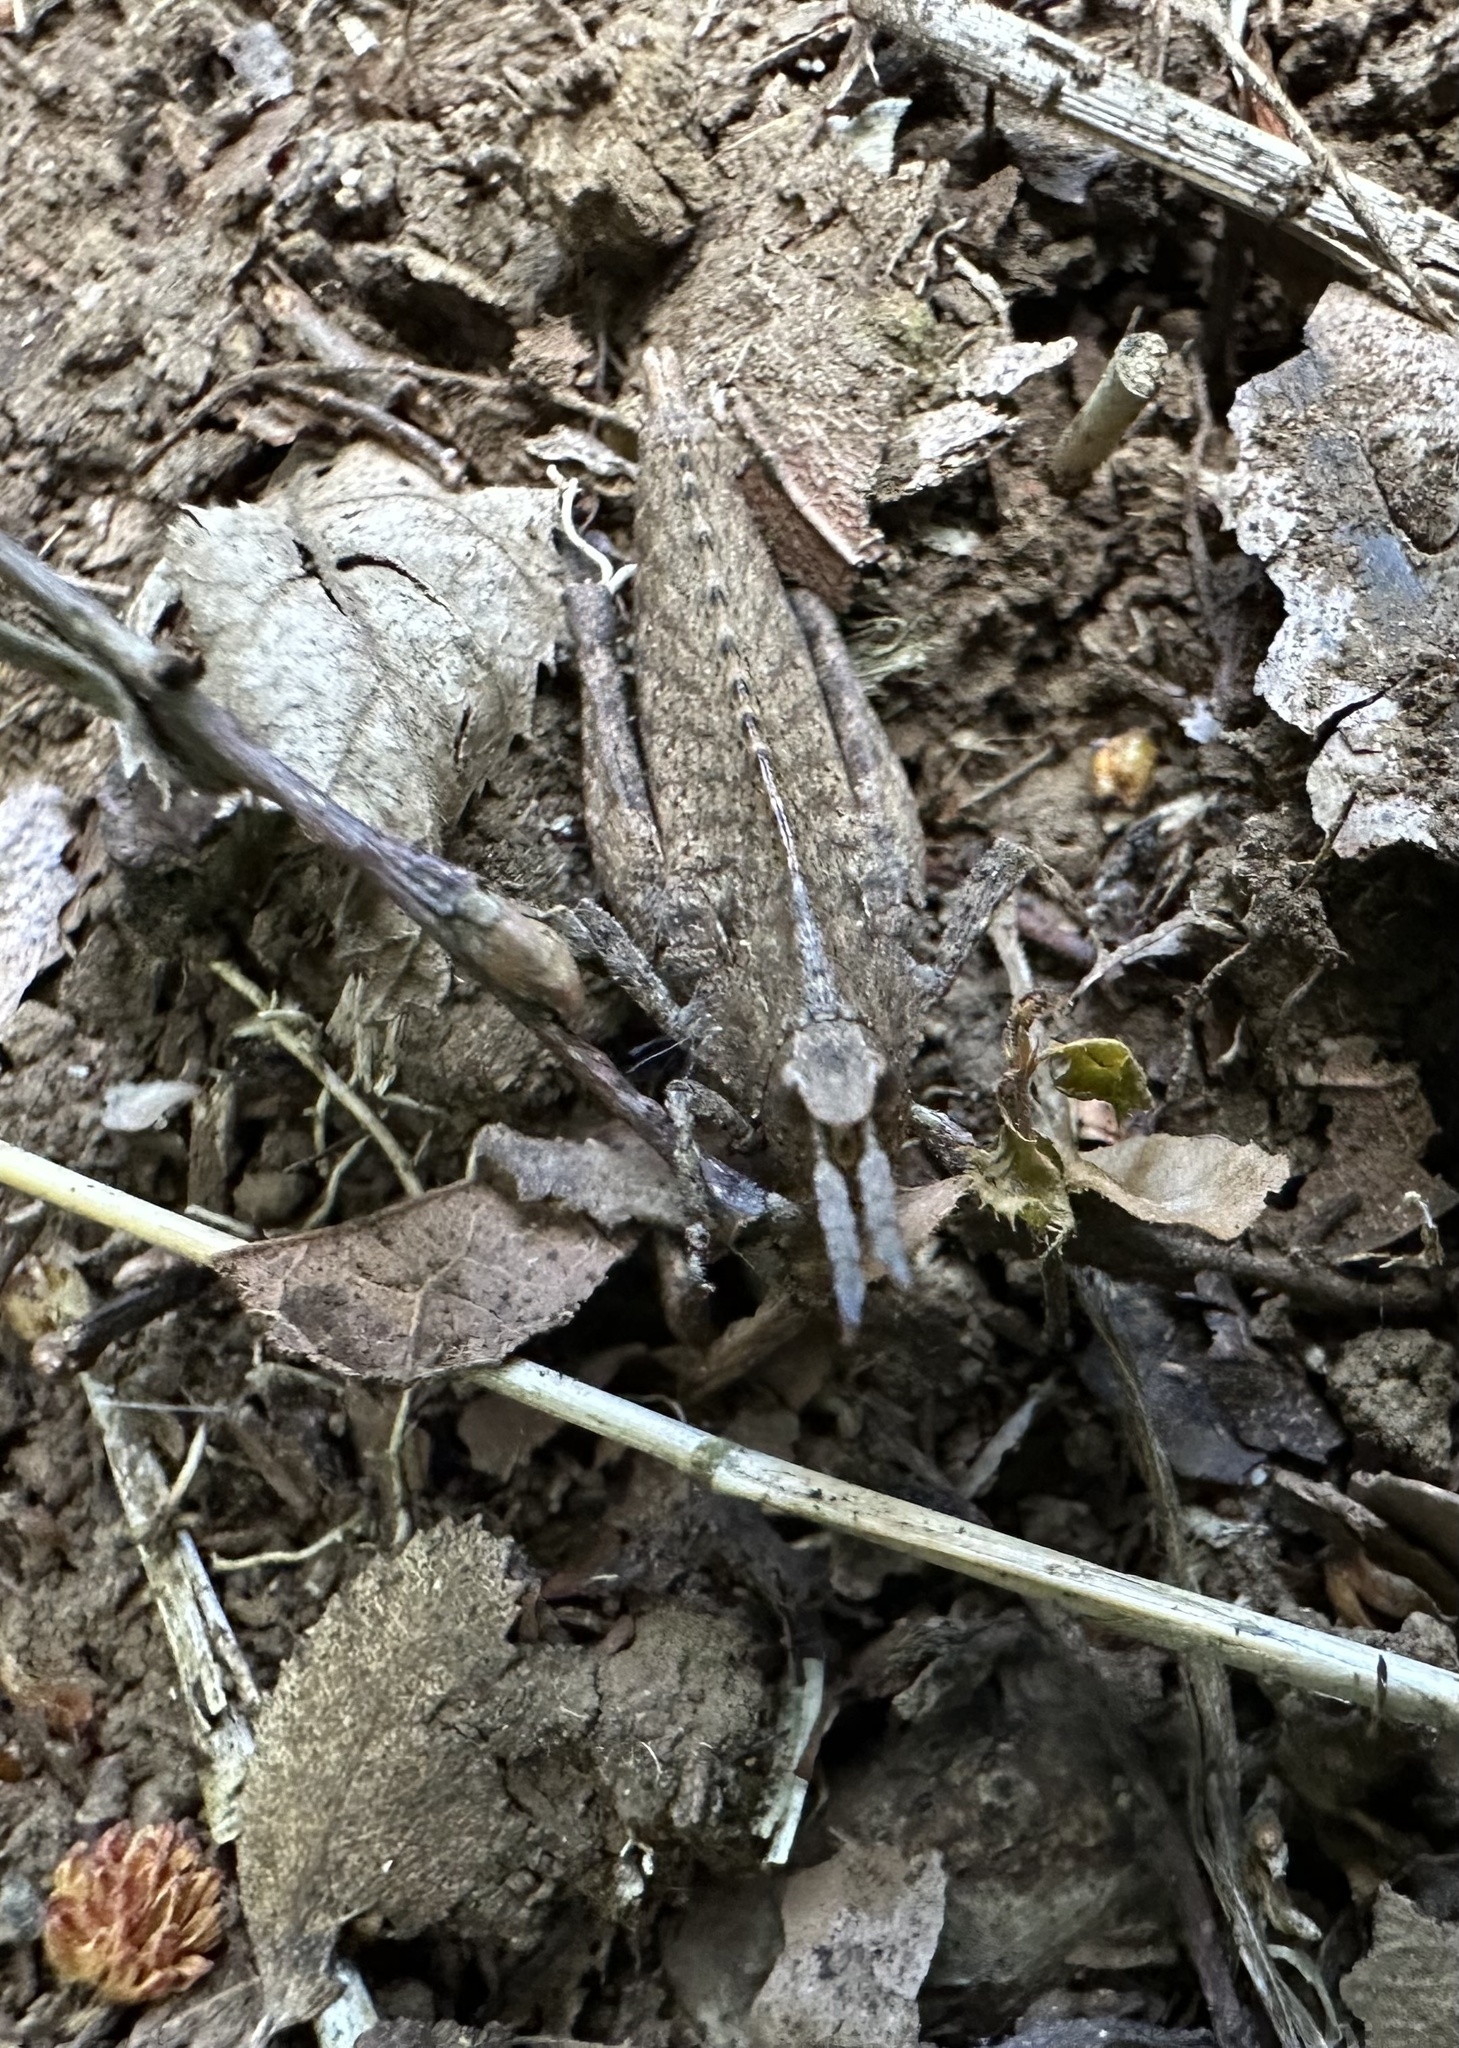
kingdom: Animalia
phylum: Arthropoda
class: Insecta
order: Orthoptera
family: Tristiridae
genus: Tropidostethus
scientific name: Tropidostethus angusticollis
